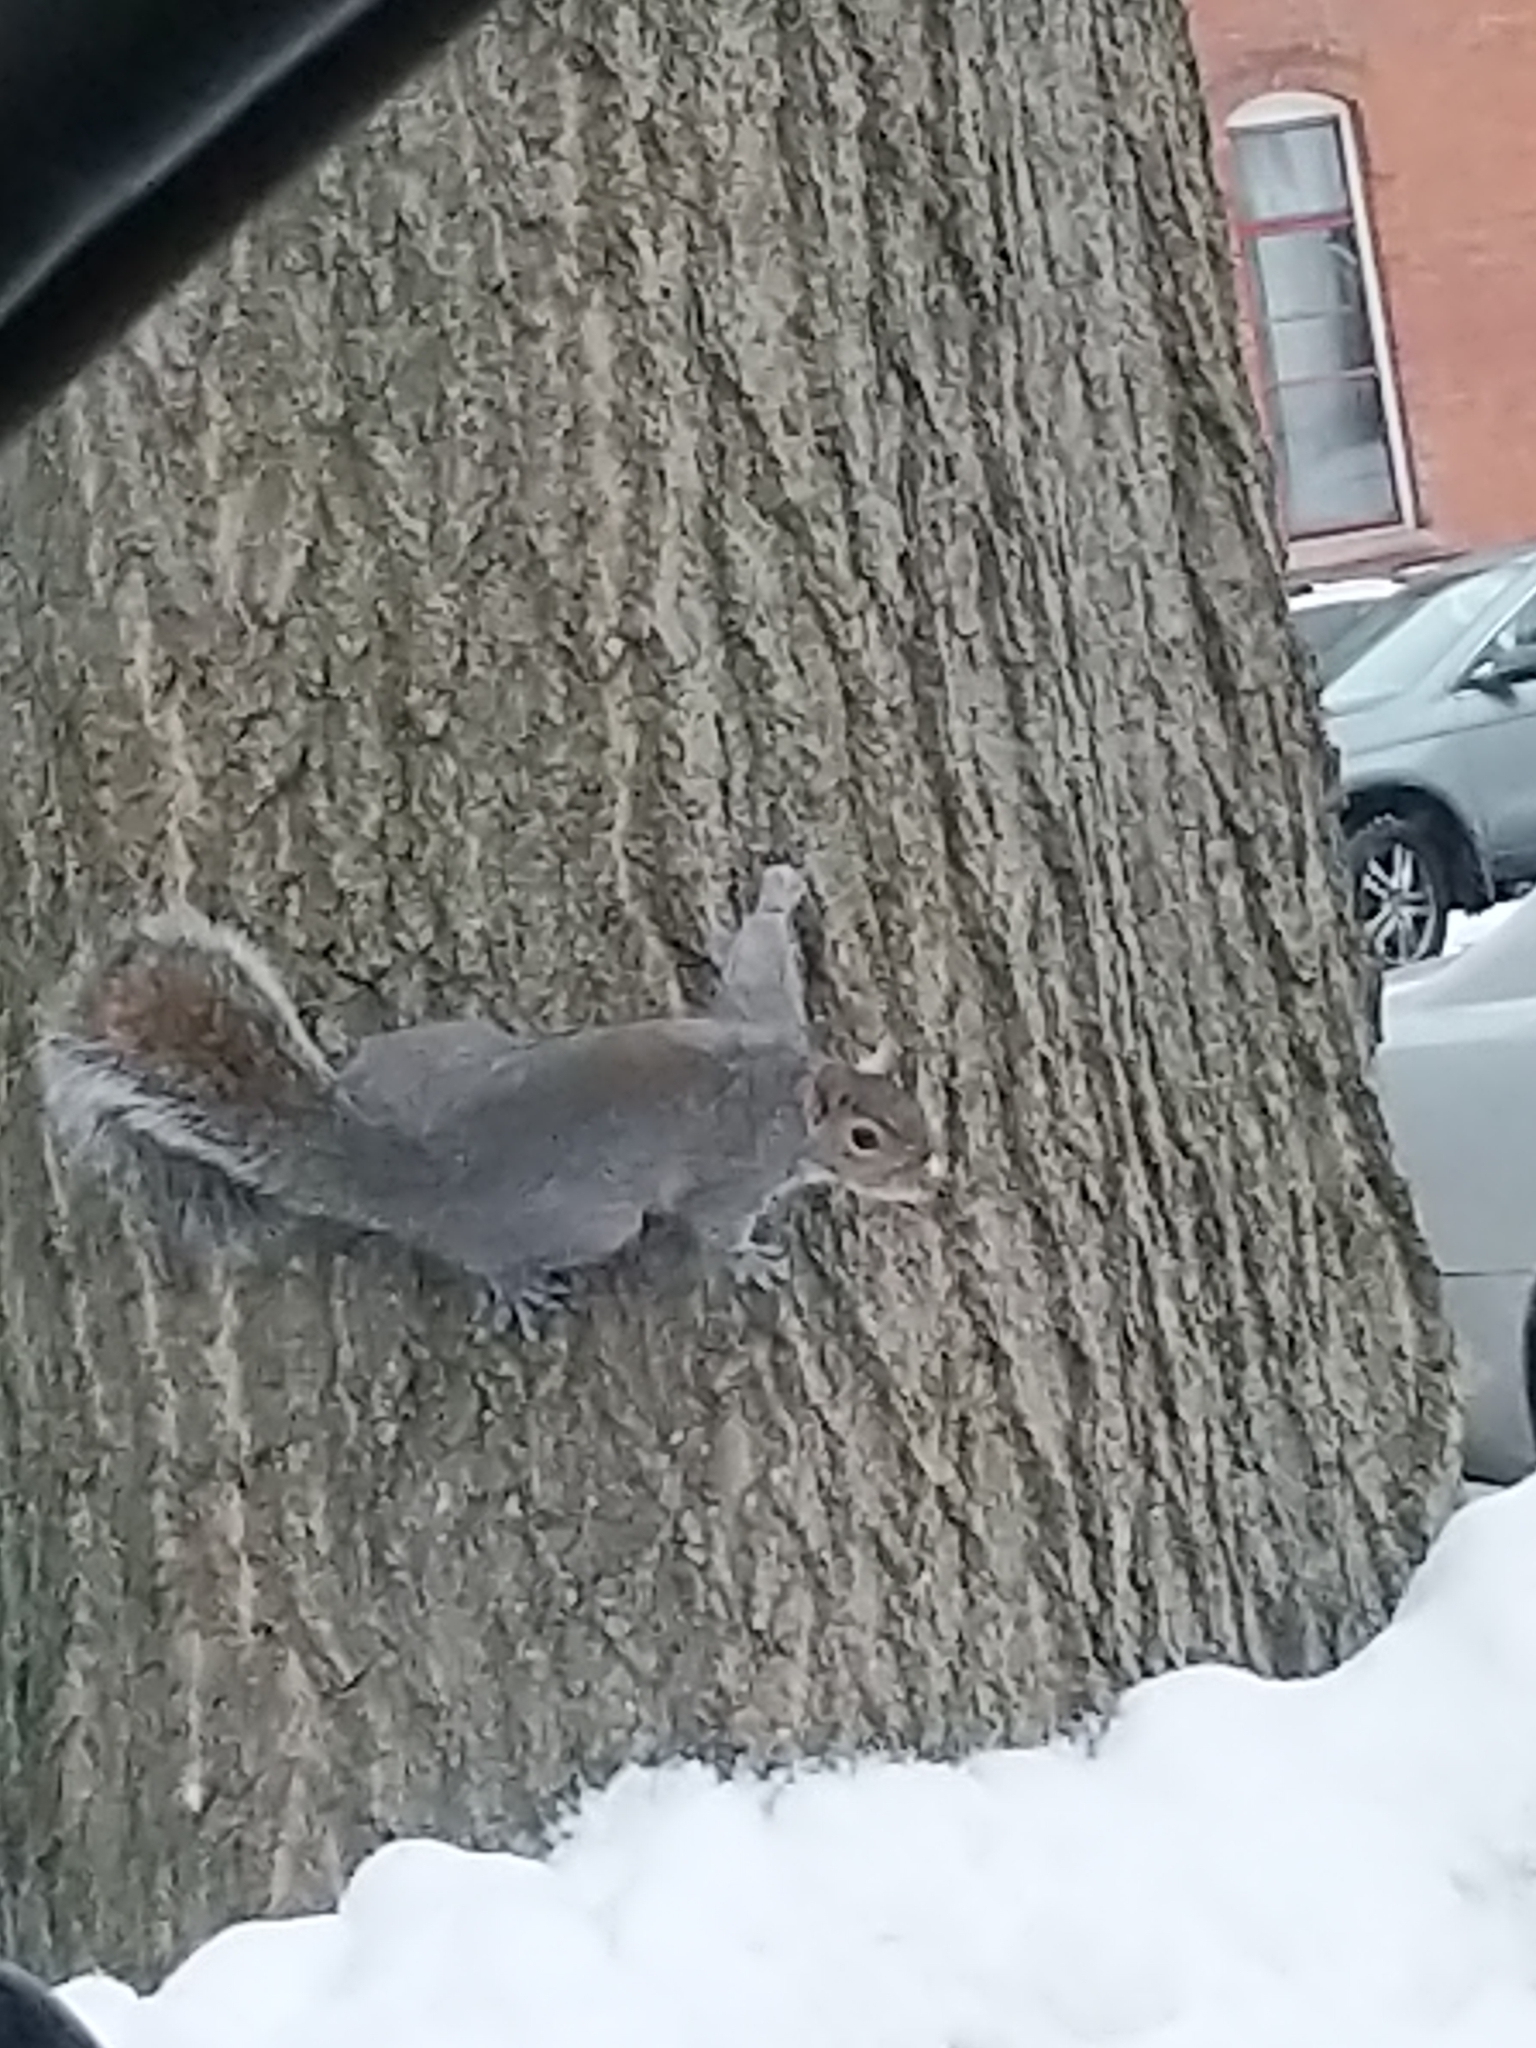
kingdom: Animalia
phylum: Chordata
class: Mammalia
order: Rodentia
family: Sciuridae
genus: Sciurus
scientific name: Sciurus carolinensis
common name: Eastern gray squirrel
